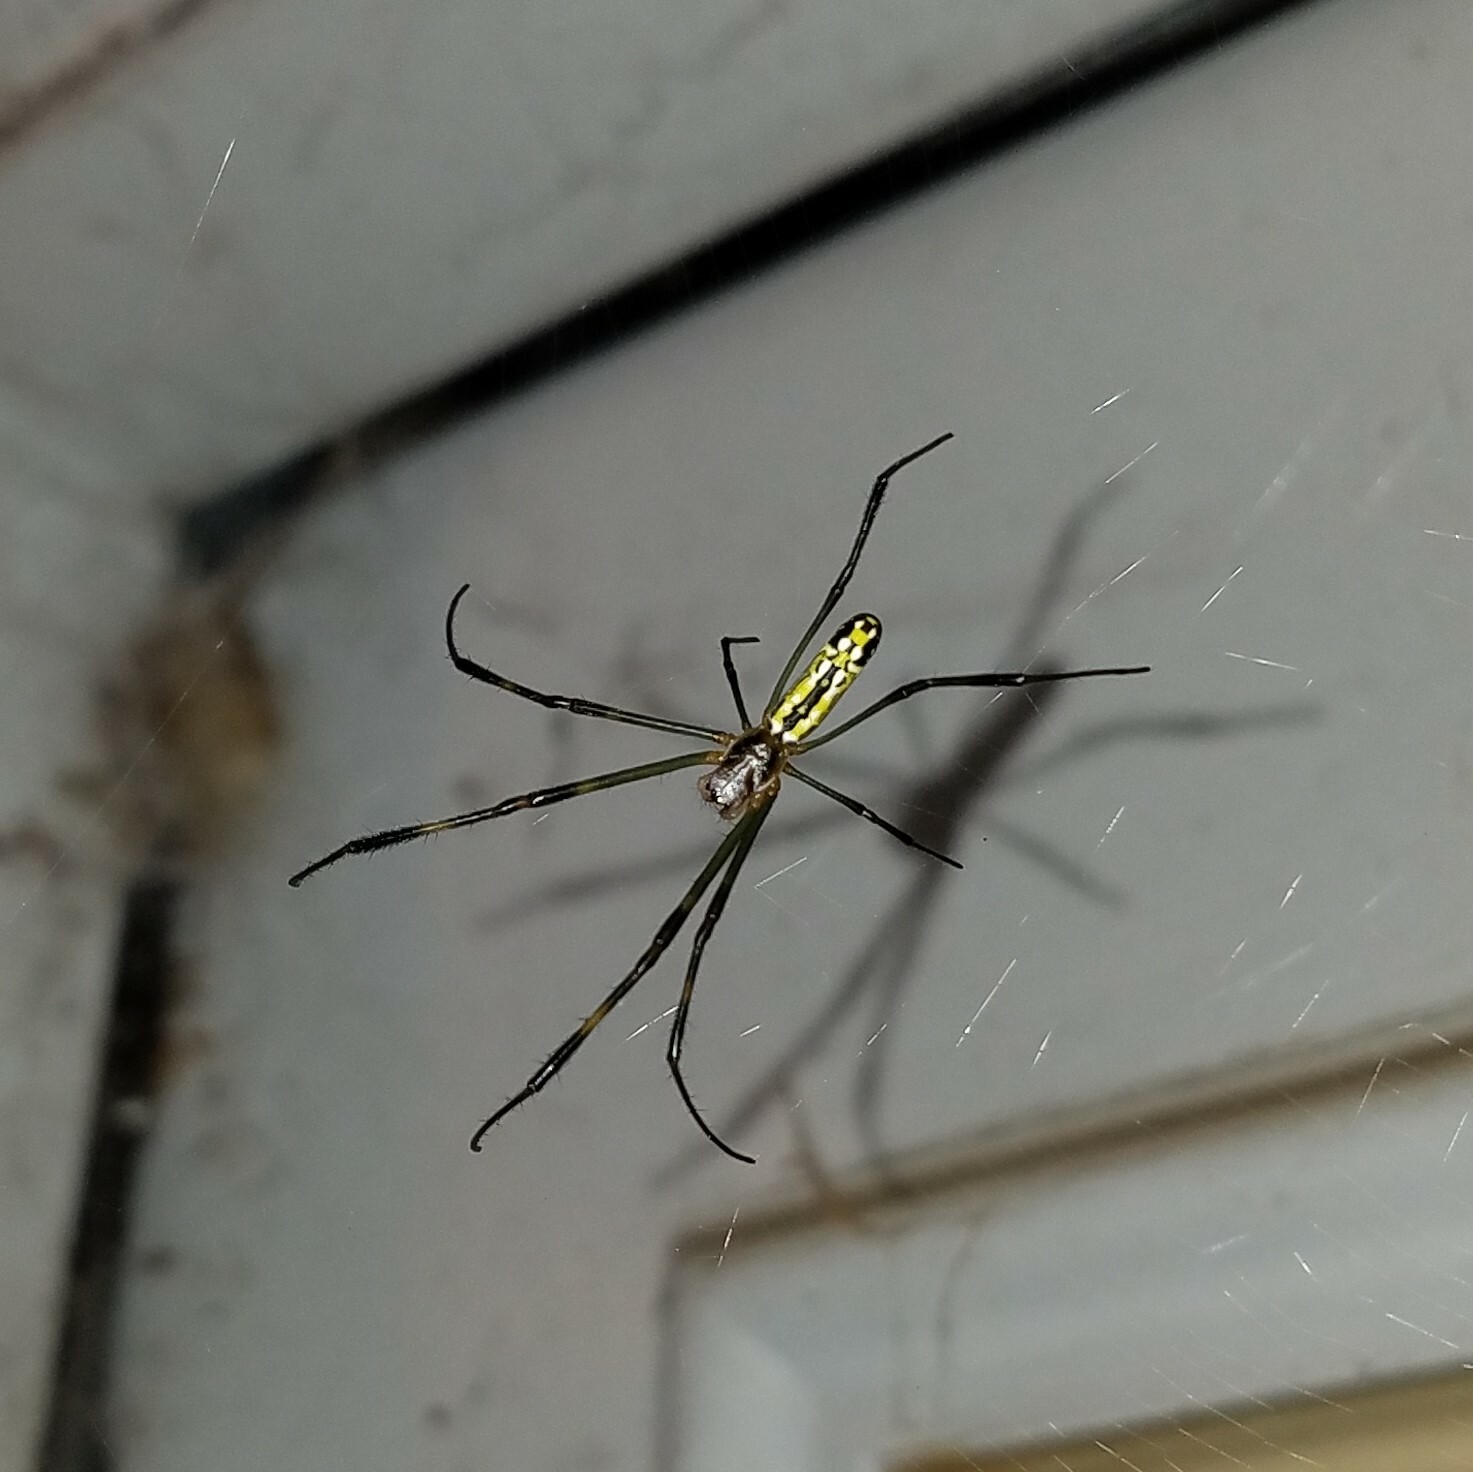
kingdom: Animalia
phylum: Arthropoda
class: Arachnida
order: Araneae
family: Araneidae
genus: Trichonephila
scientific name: Trichonephila clavata
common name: Jorō spider
